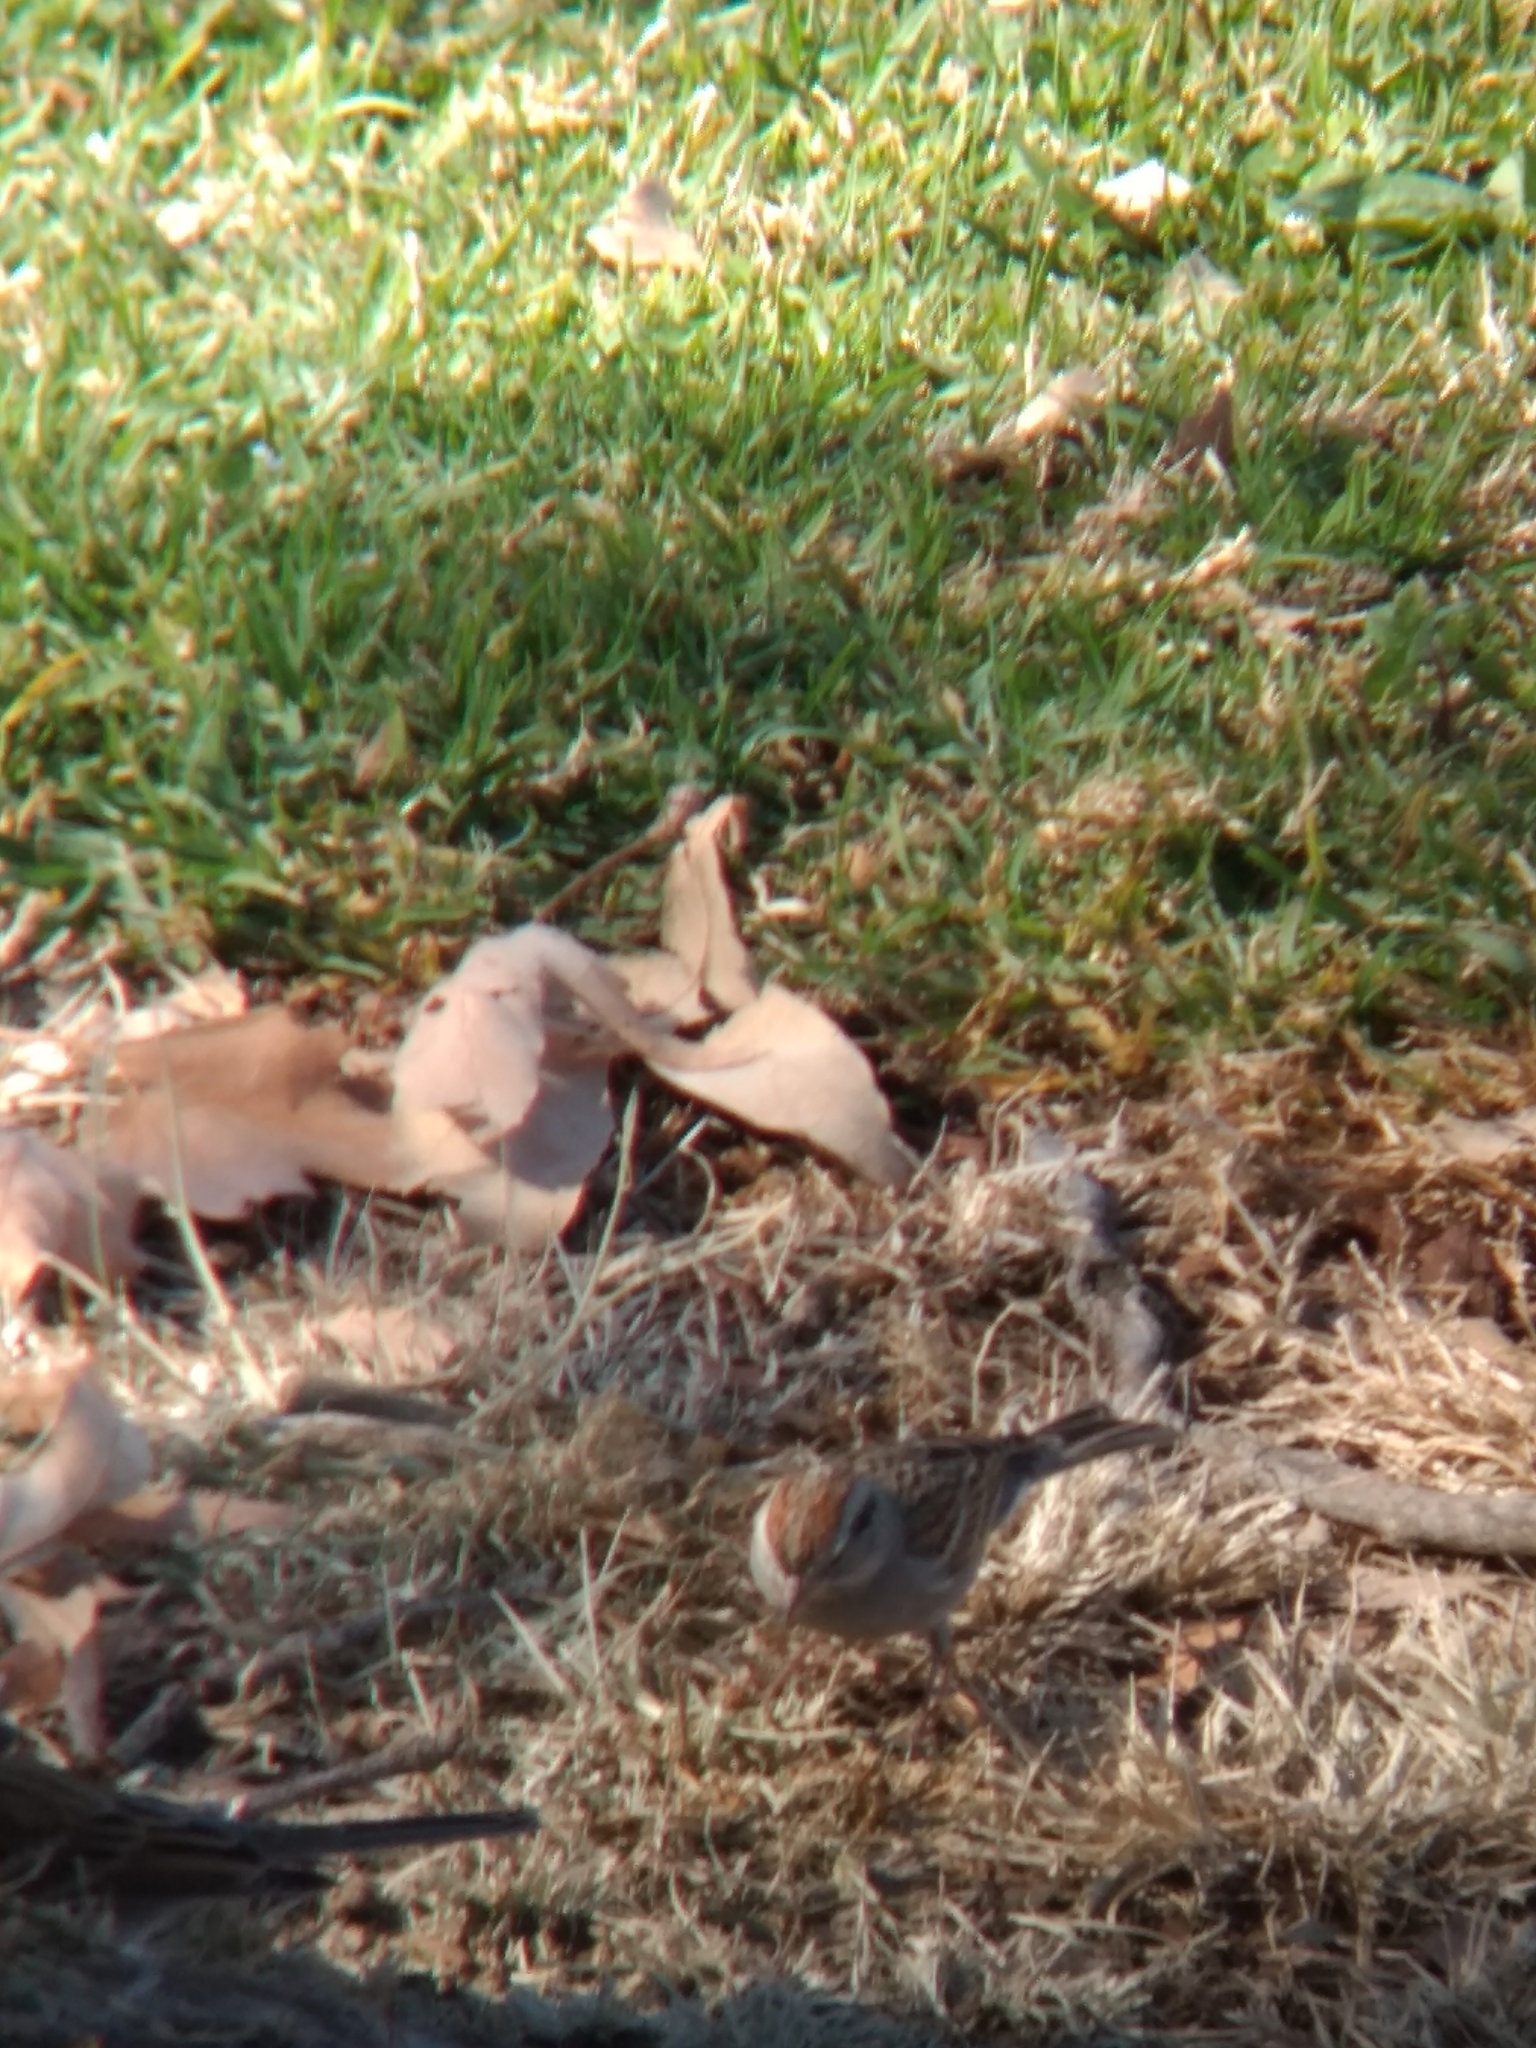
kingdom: Animalia
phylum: Chordata
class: Aves
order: Passeriformes
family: Passerellidae
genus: Spizella
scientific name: Spizella passerina
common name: Chipping sparrow
